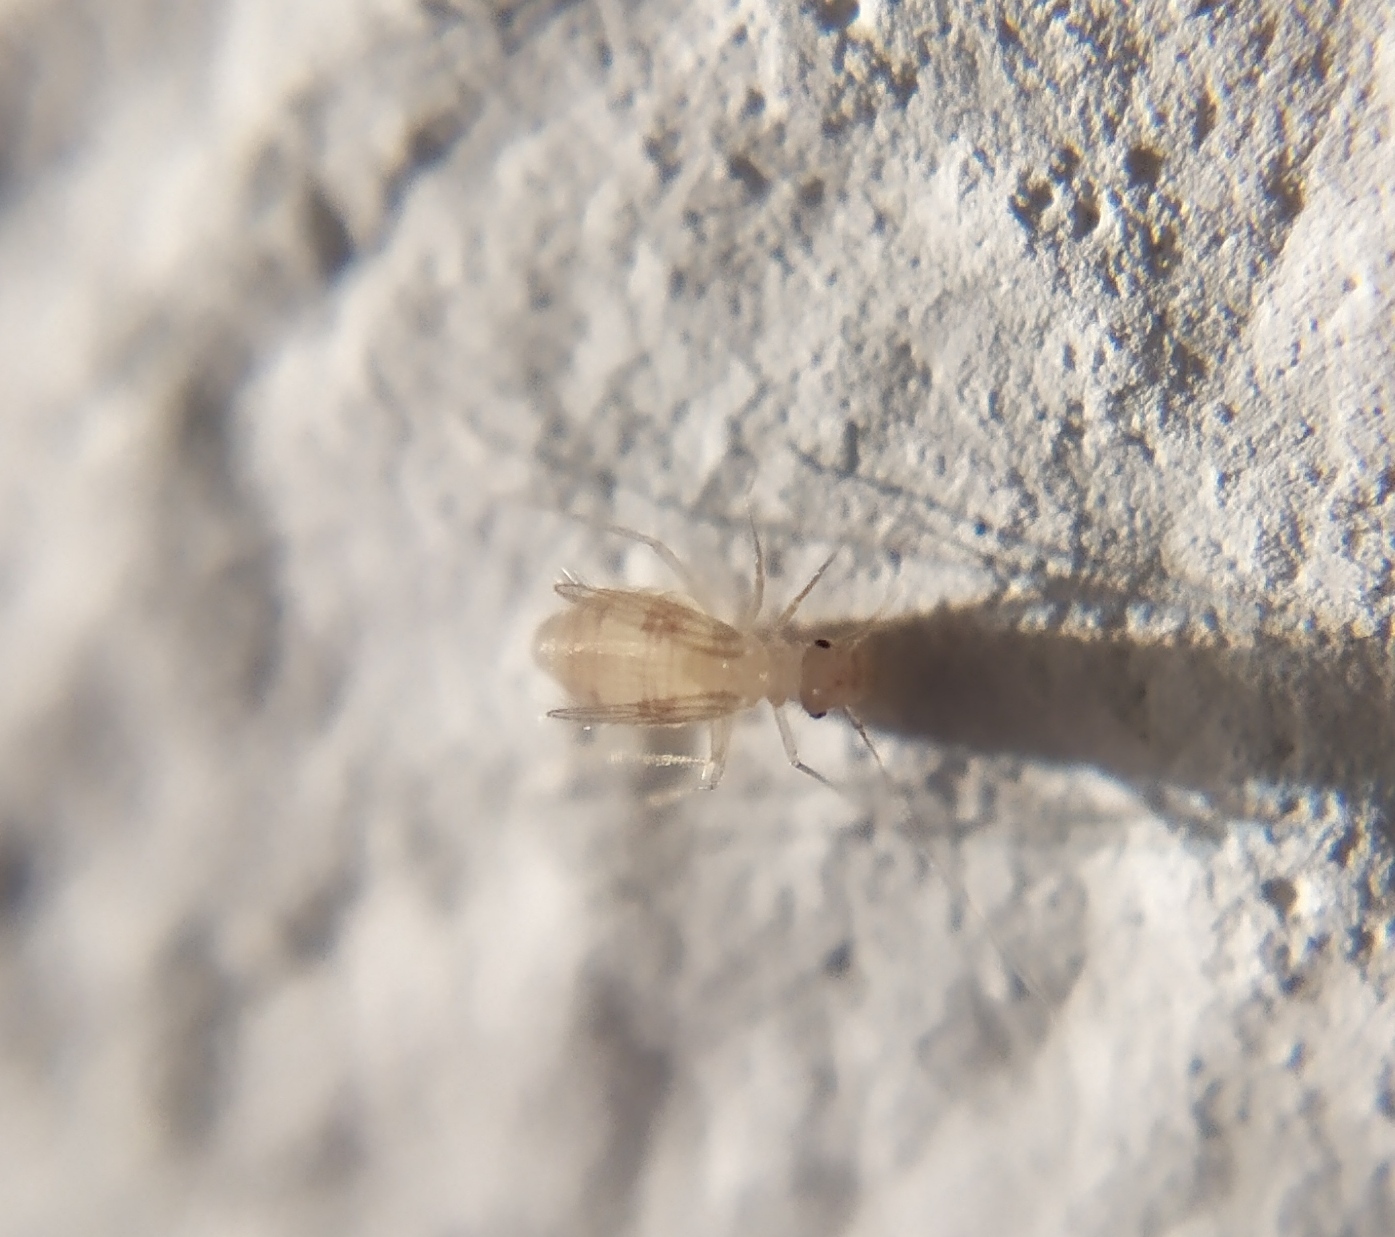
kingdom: Animalia
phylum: Arthropoda
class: Insecta
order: Psocodea
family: Psyllipsocidae
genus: Dorypteryx
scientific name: Dorypteryx domestica
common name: Cave barklouse
